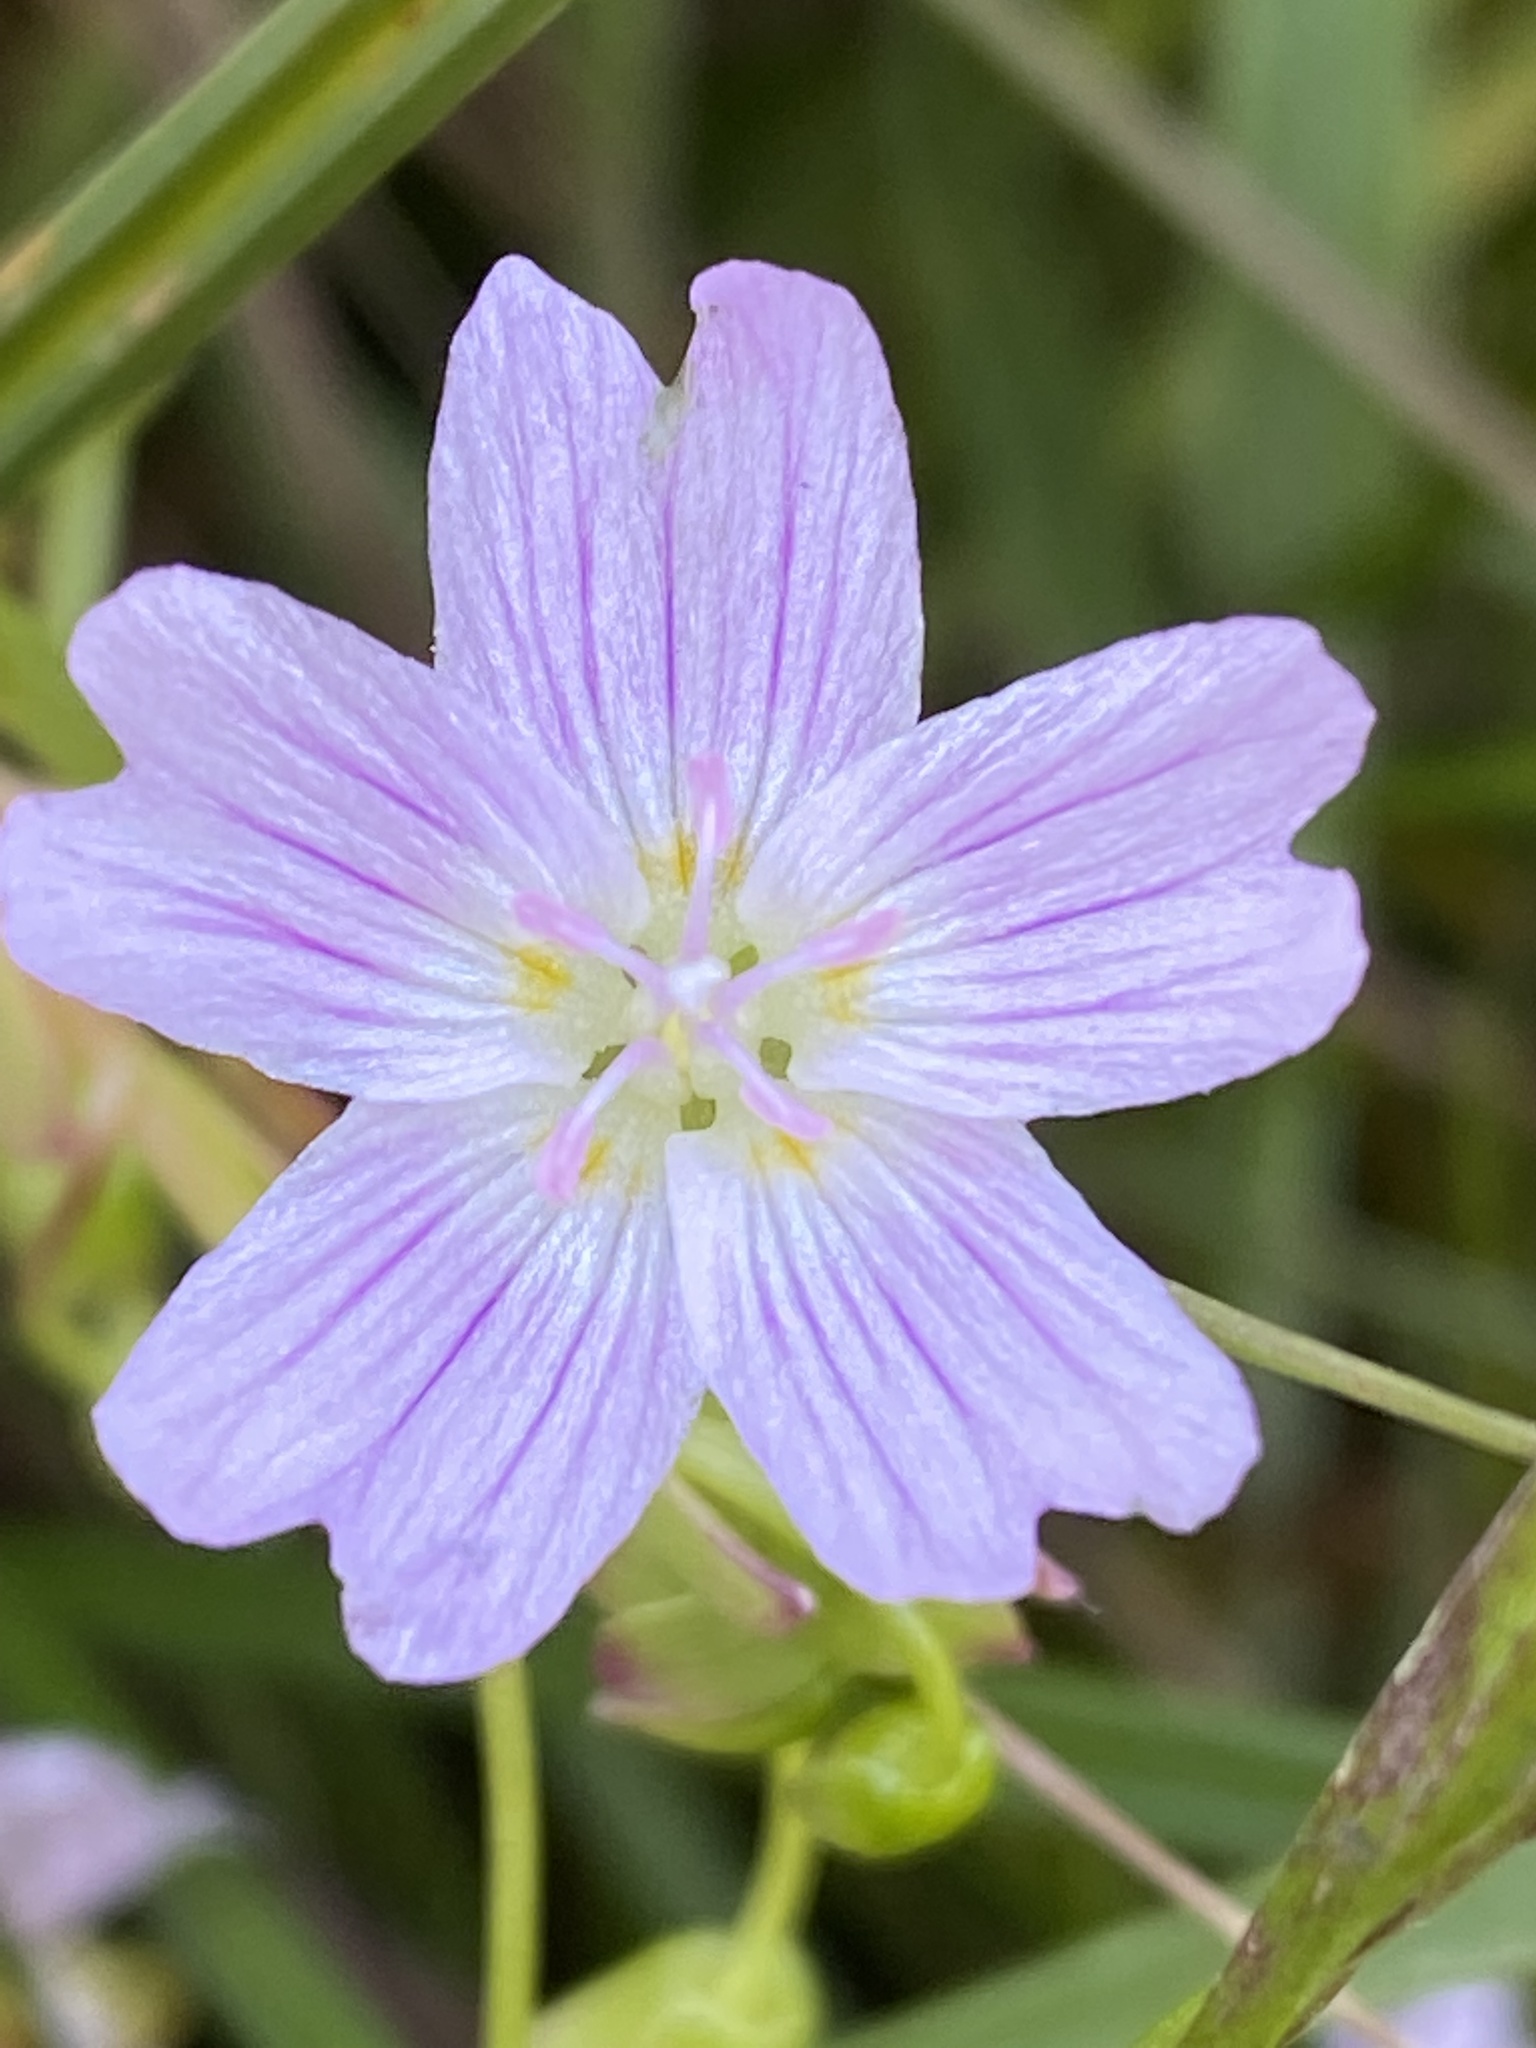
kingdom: Plantae
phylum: Tracheophyta
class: Magnoliopsida
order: Caryophyllales
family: Montiaceae
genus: Claytonia
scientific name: Claytonia sibirica
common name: Pink purslane
